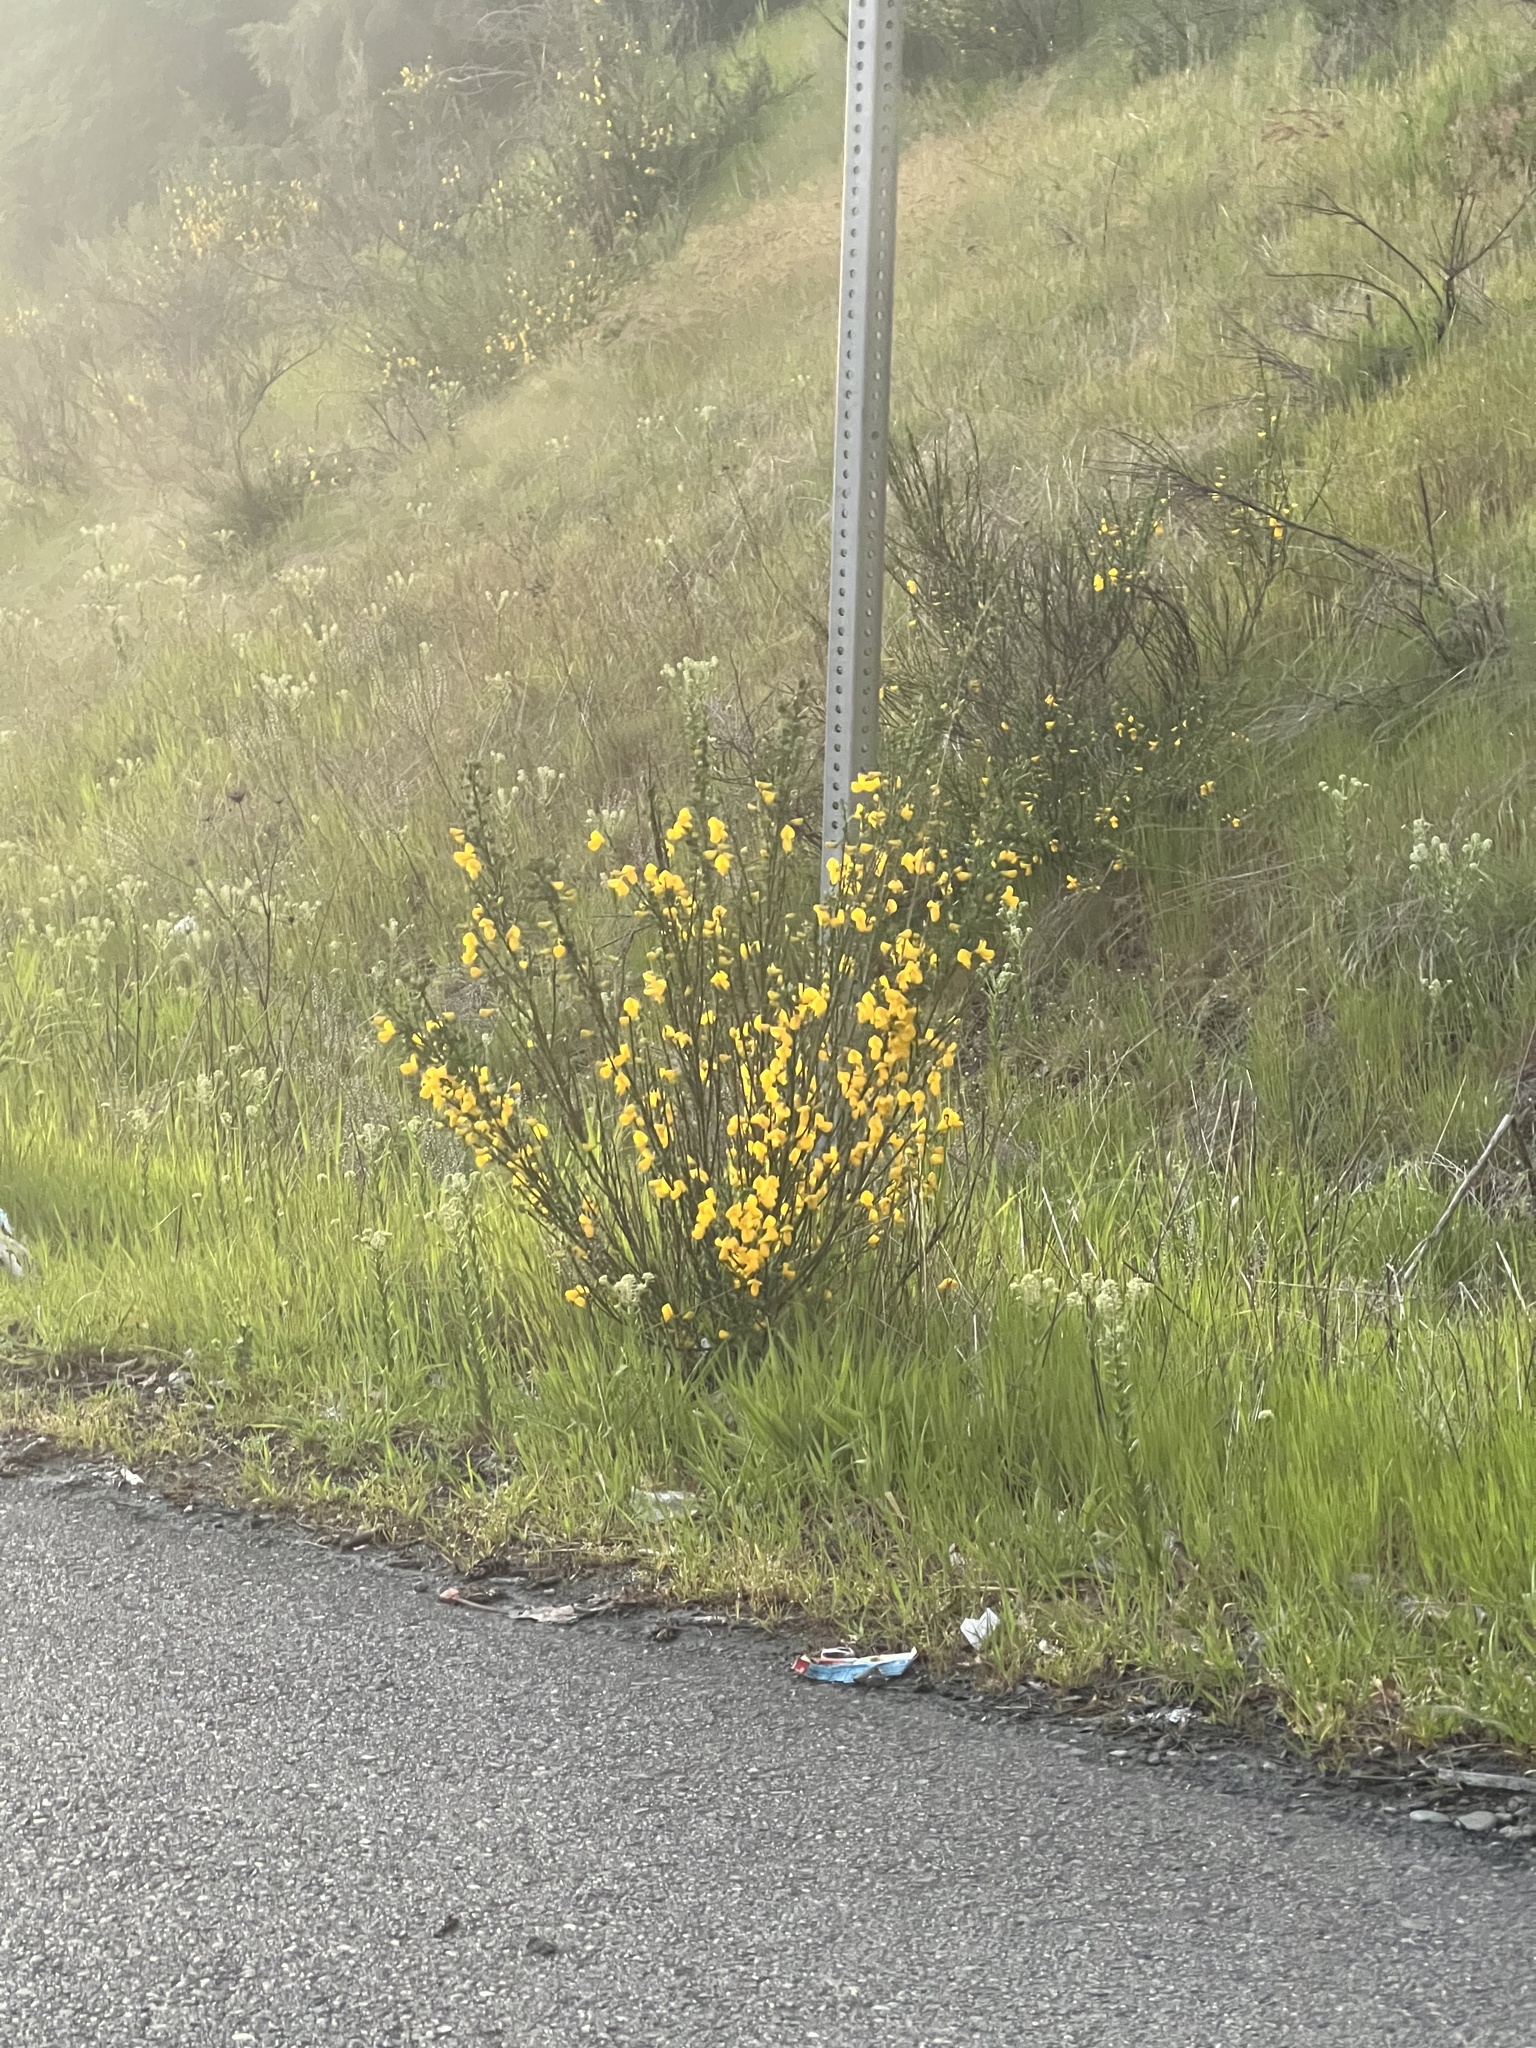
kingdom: Plantae
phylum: Tracheophyta
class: Magnoliopsida
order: Fabales
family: Fabaceae
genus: Cytisus
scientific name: Cytisus scoparius
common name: Scotch broom
